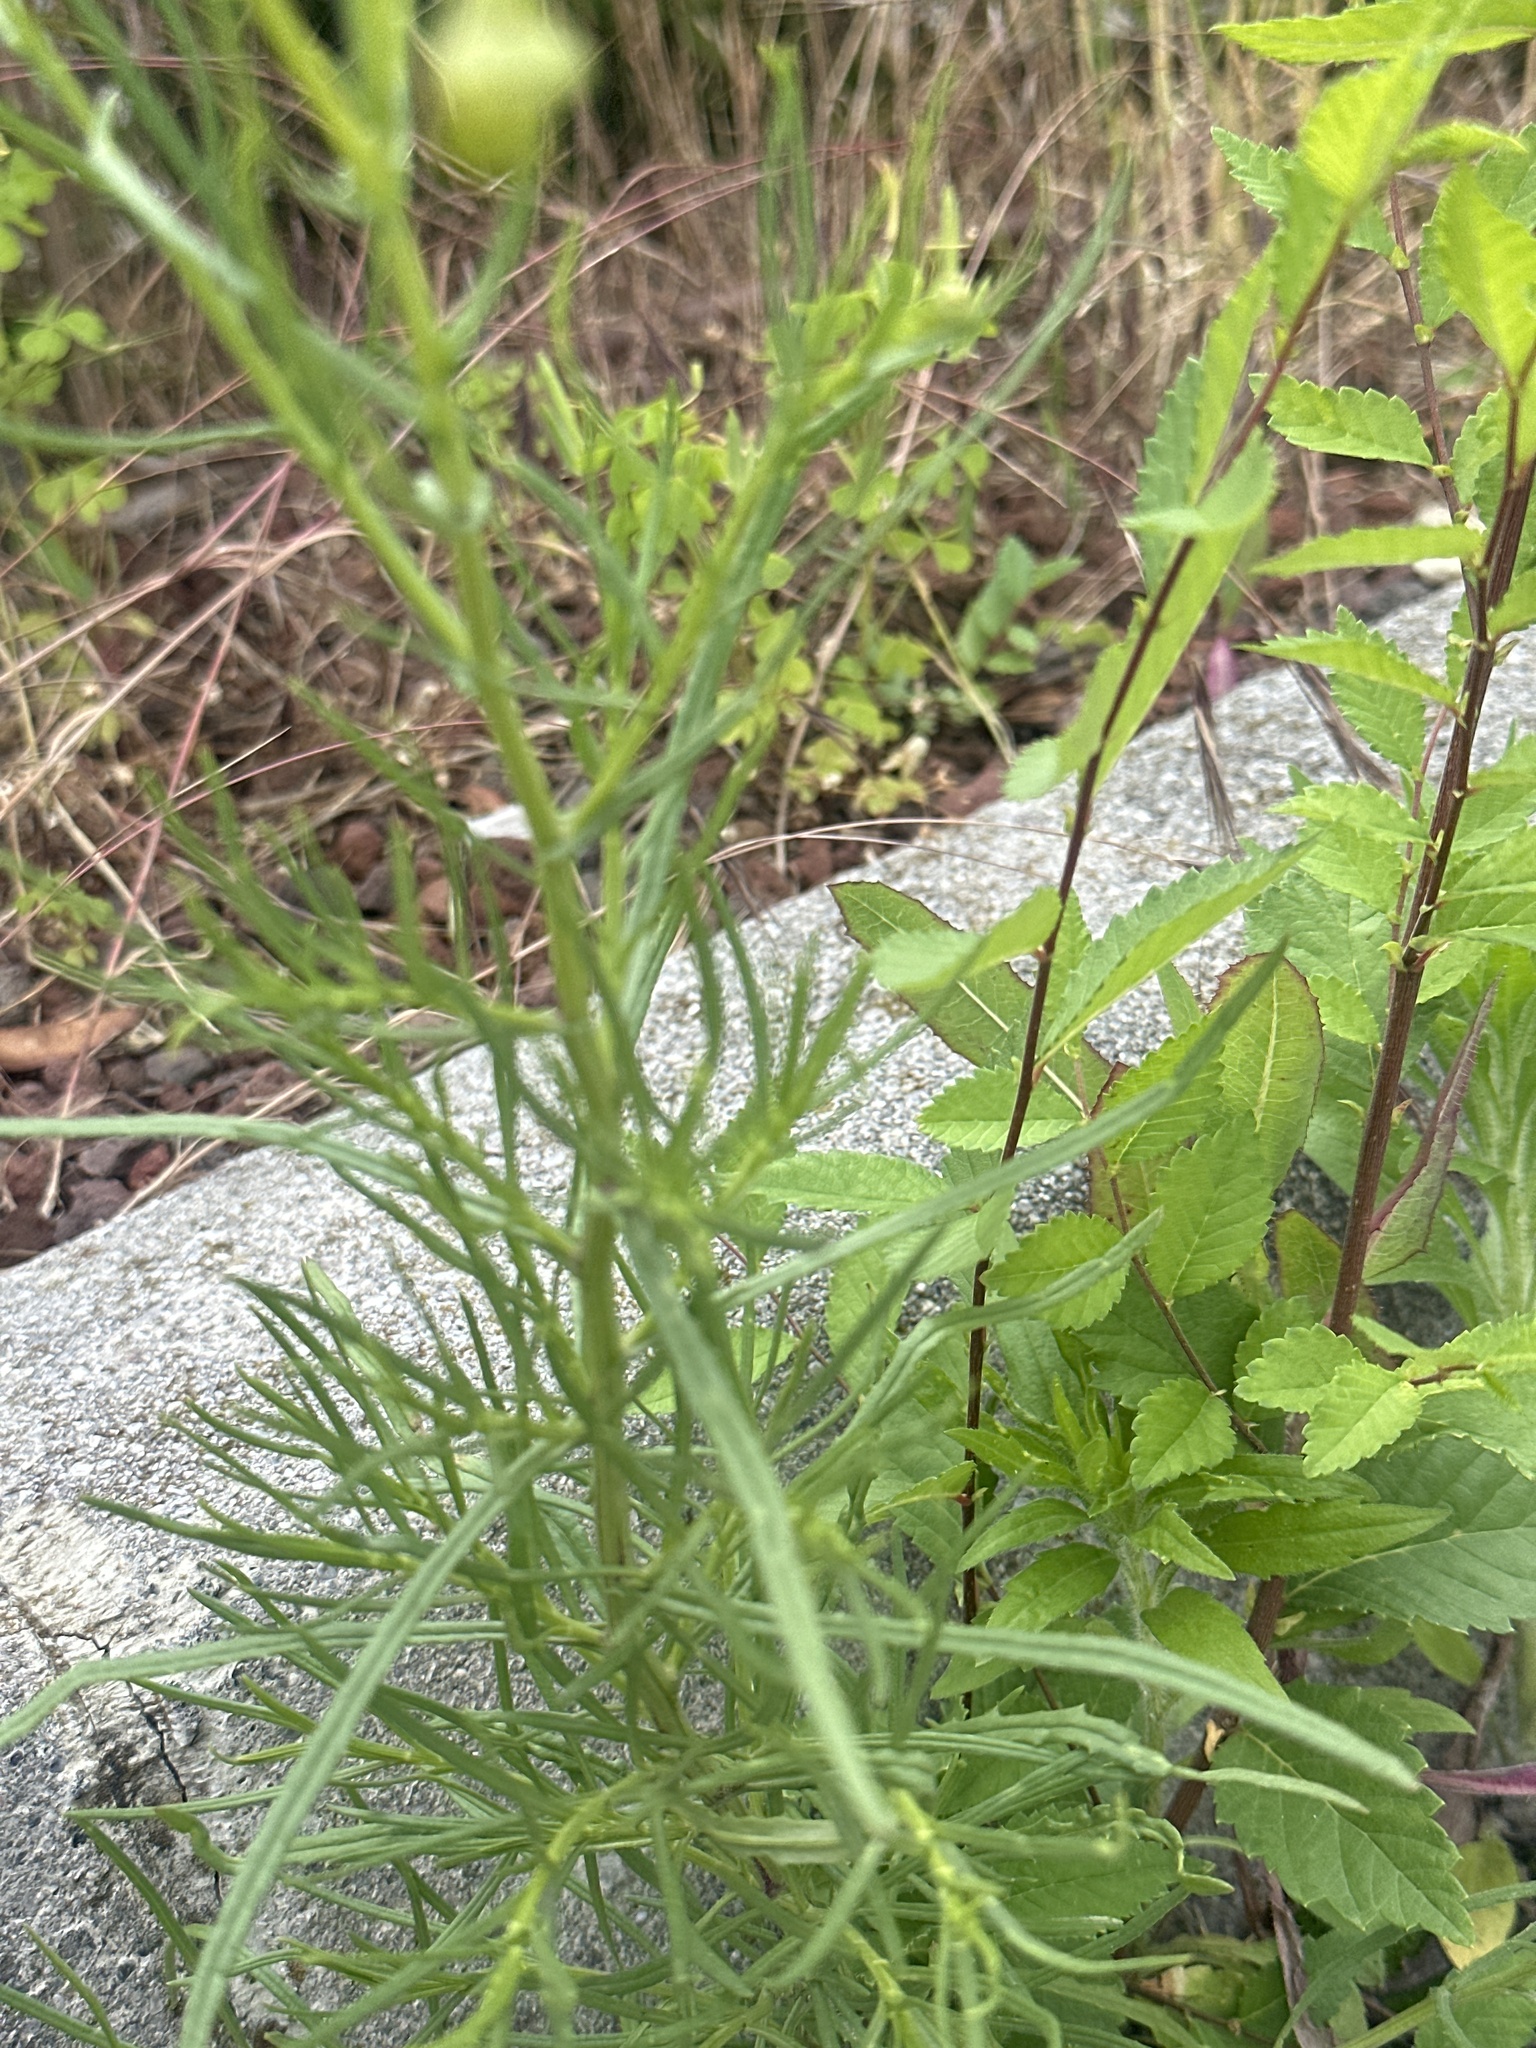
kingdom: Plantae
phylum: Tracheophyta
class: Magnoliopsida
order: Asterales
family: Asteraceae
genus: Senecio
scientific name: Senecio inaequidens
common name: Narrow-leaved ragwort
